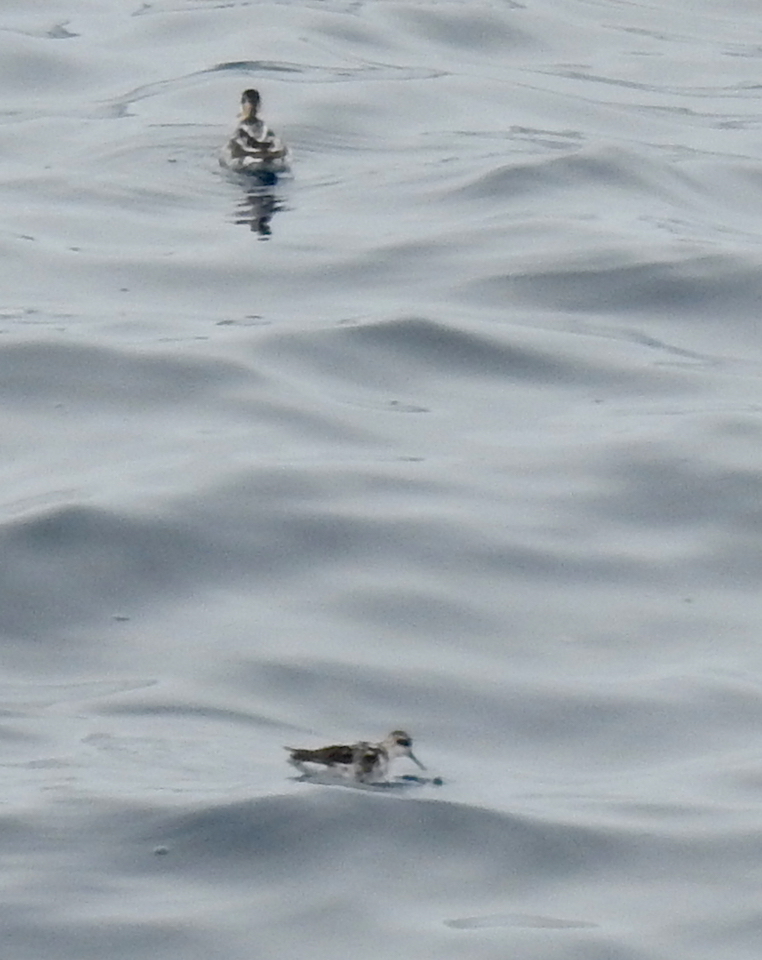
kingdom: Animalia
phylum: Chordata
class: Aves
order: Charadriiformes
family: Scolopacidae
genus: Phalaropus
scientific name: Phalaropus lobatus
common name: Red-necked phalarope
